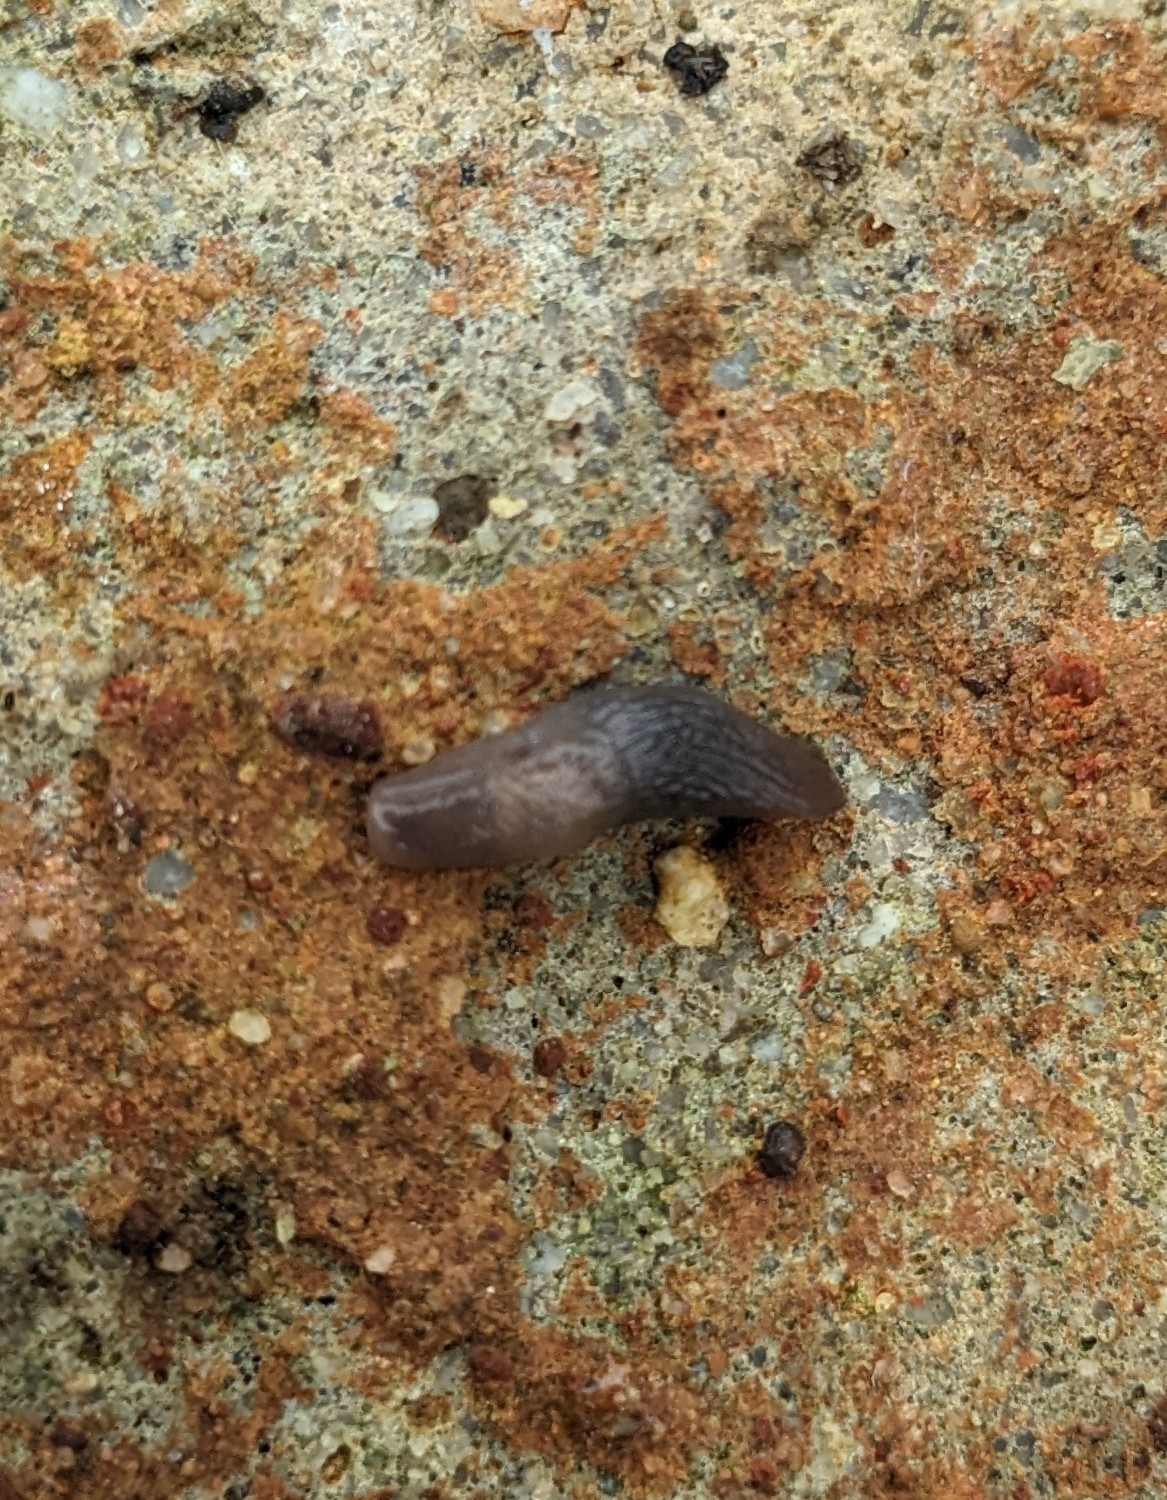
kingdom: Animalia
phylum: Mollusca
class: Gastropoda
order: Stylommatophora
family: Agriolimacidae
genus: Deroceras
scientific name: Deroceras invadens
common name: Caruana's slug
